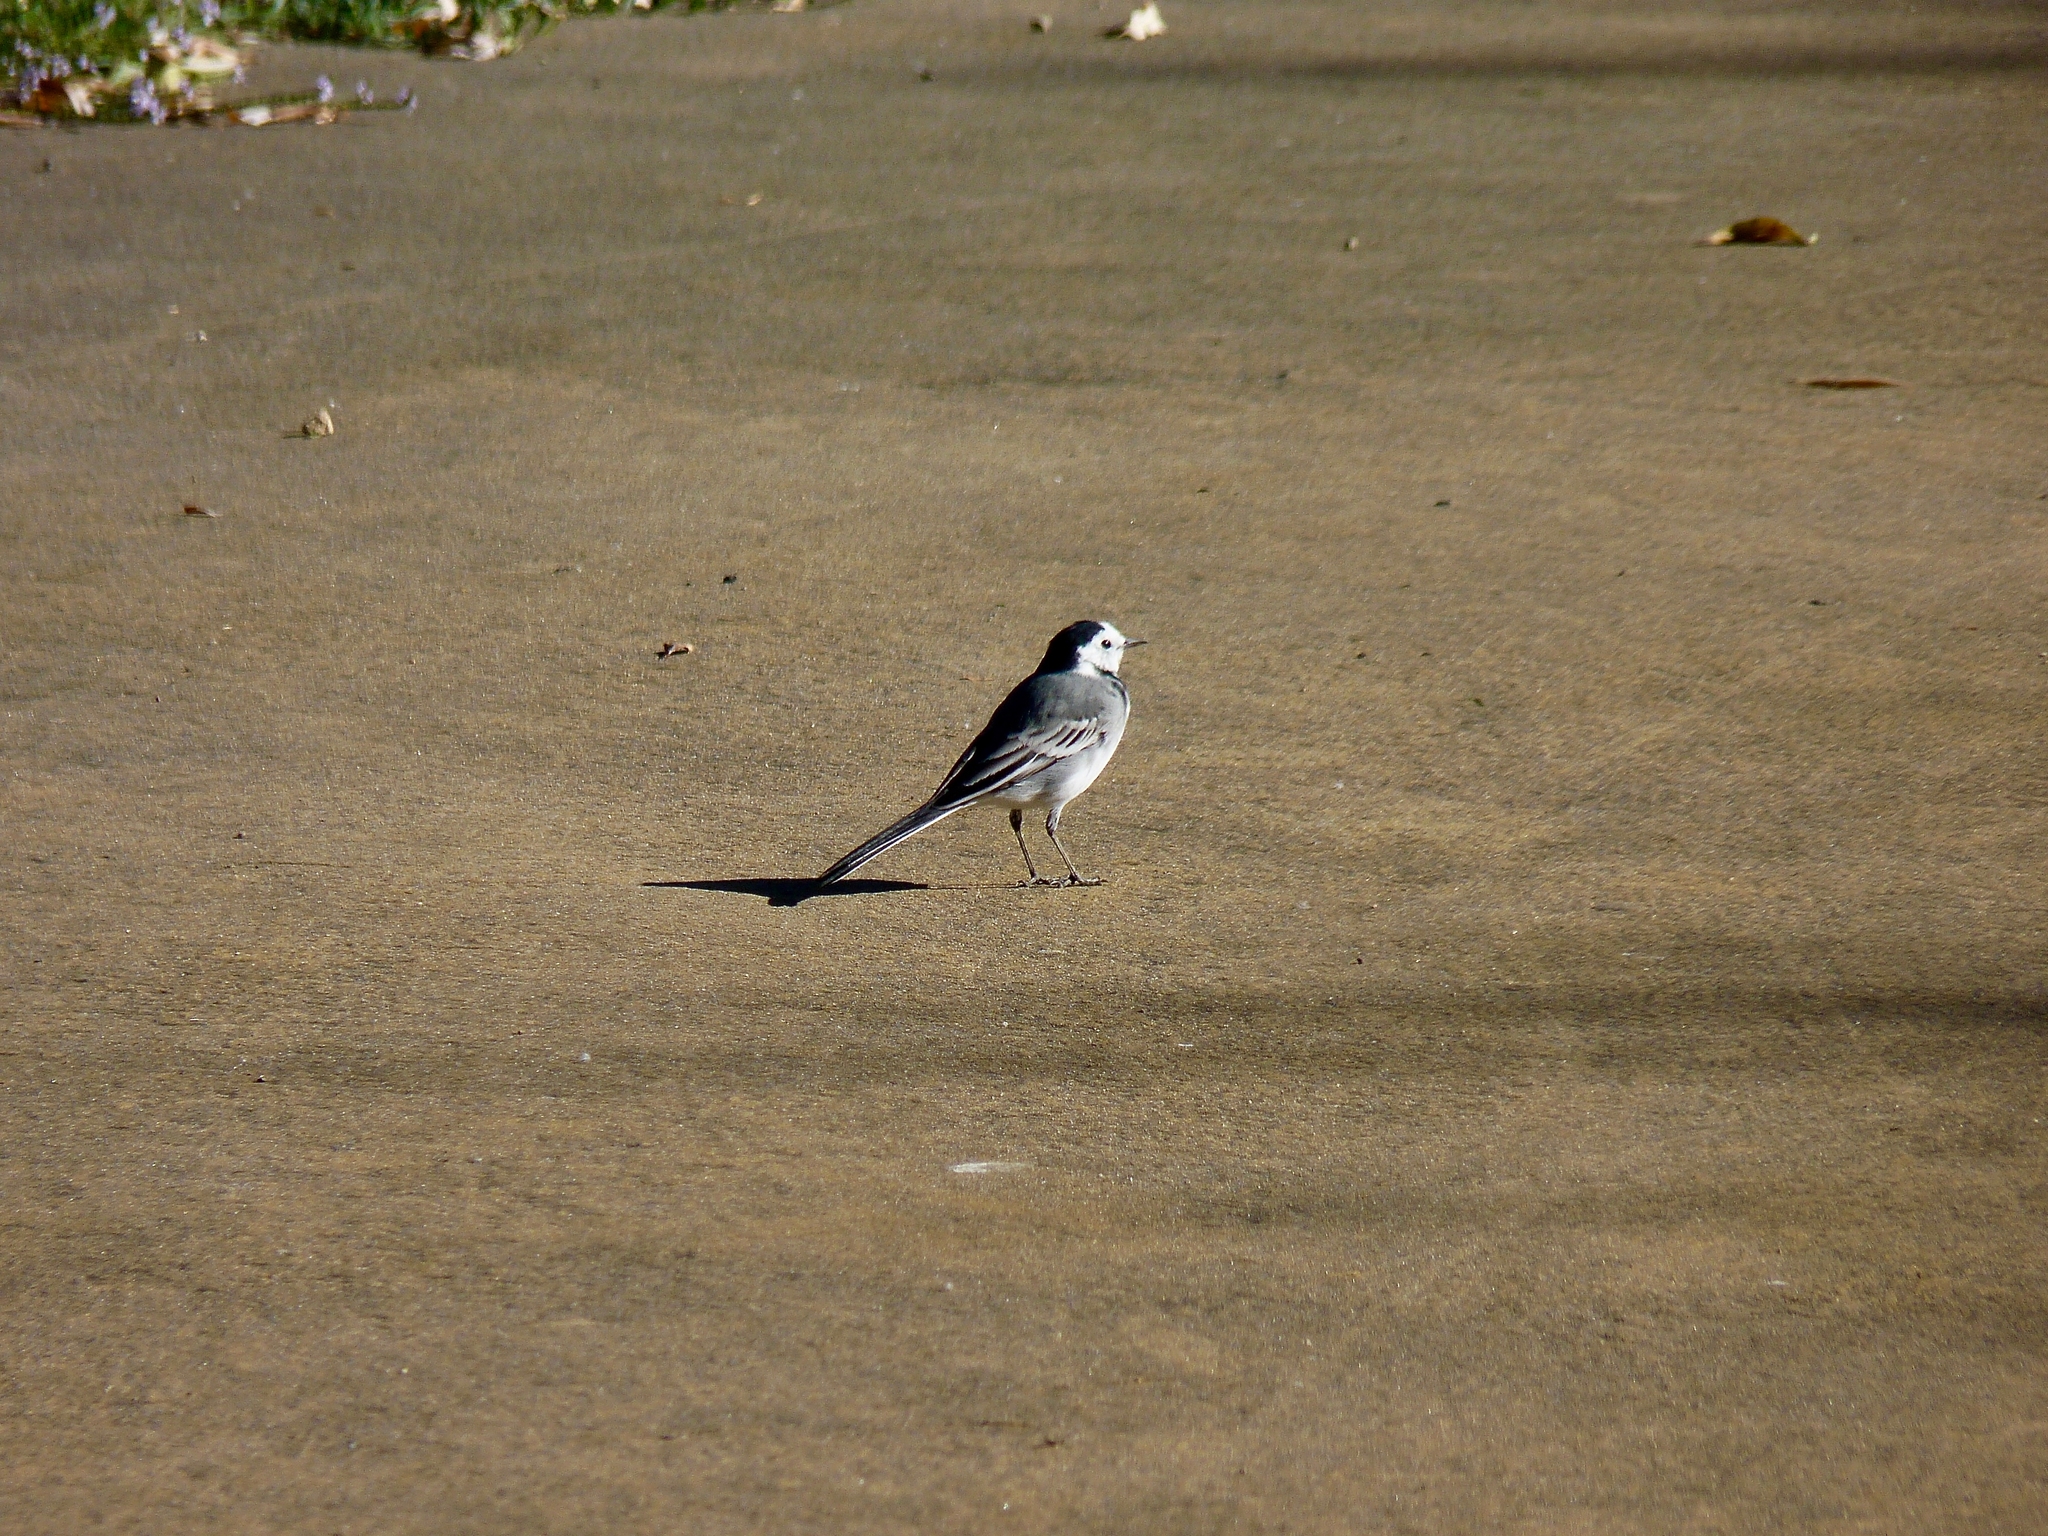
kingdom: Animalia
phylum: Chordata
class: Aves
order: Passeriformes
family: Motacillidae
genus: Motacilla
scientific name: Motacilla alba
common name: White wagtail
